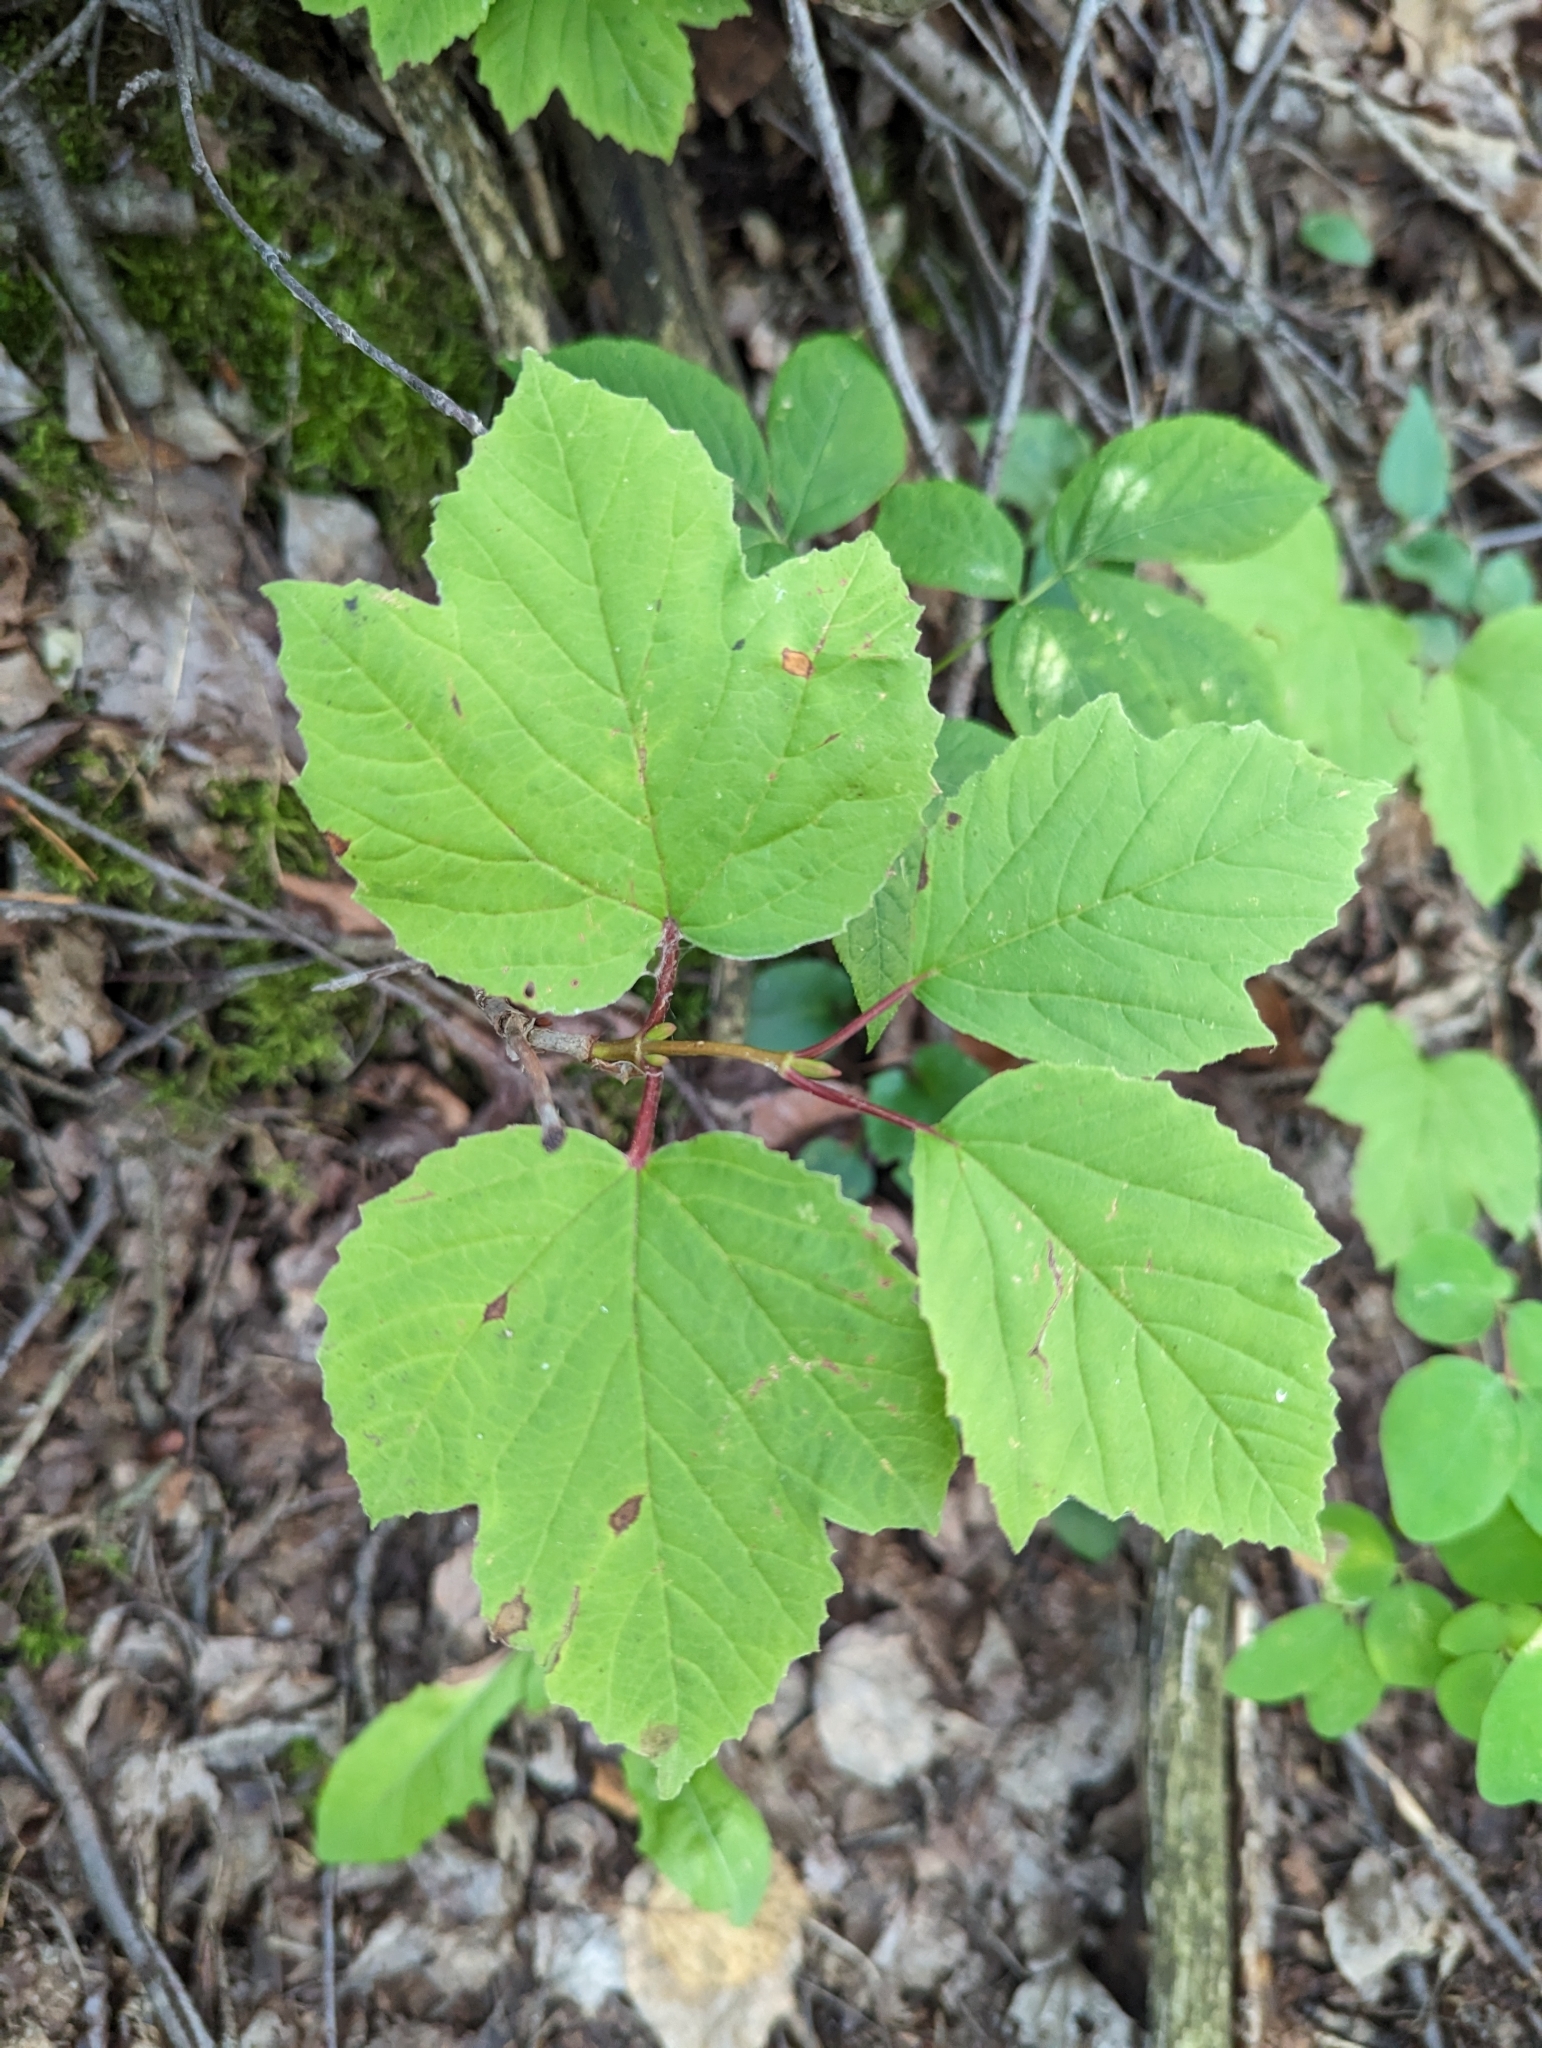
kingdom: Plantae
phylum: Tracheophyta
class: Magnoliopsida
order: Dipsacales
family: Viburnaceae
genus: Viburnum
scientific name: Viburnum edule
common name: Mooseberry
